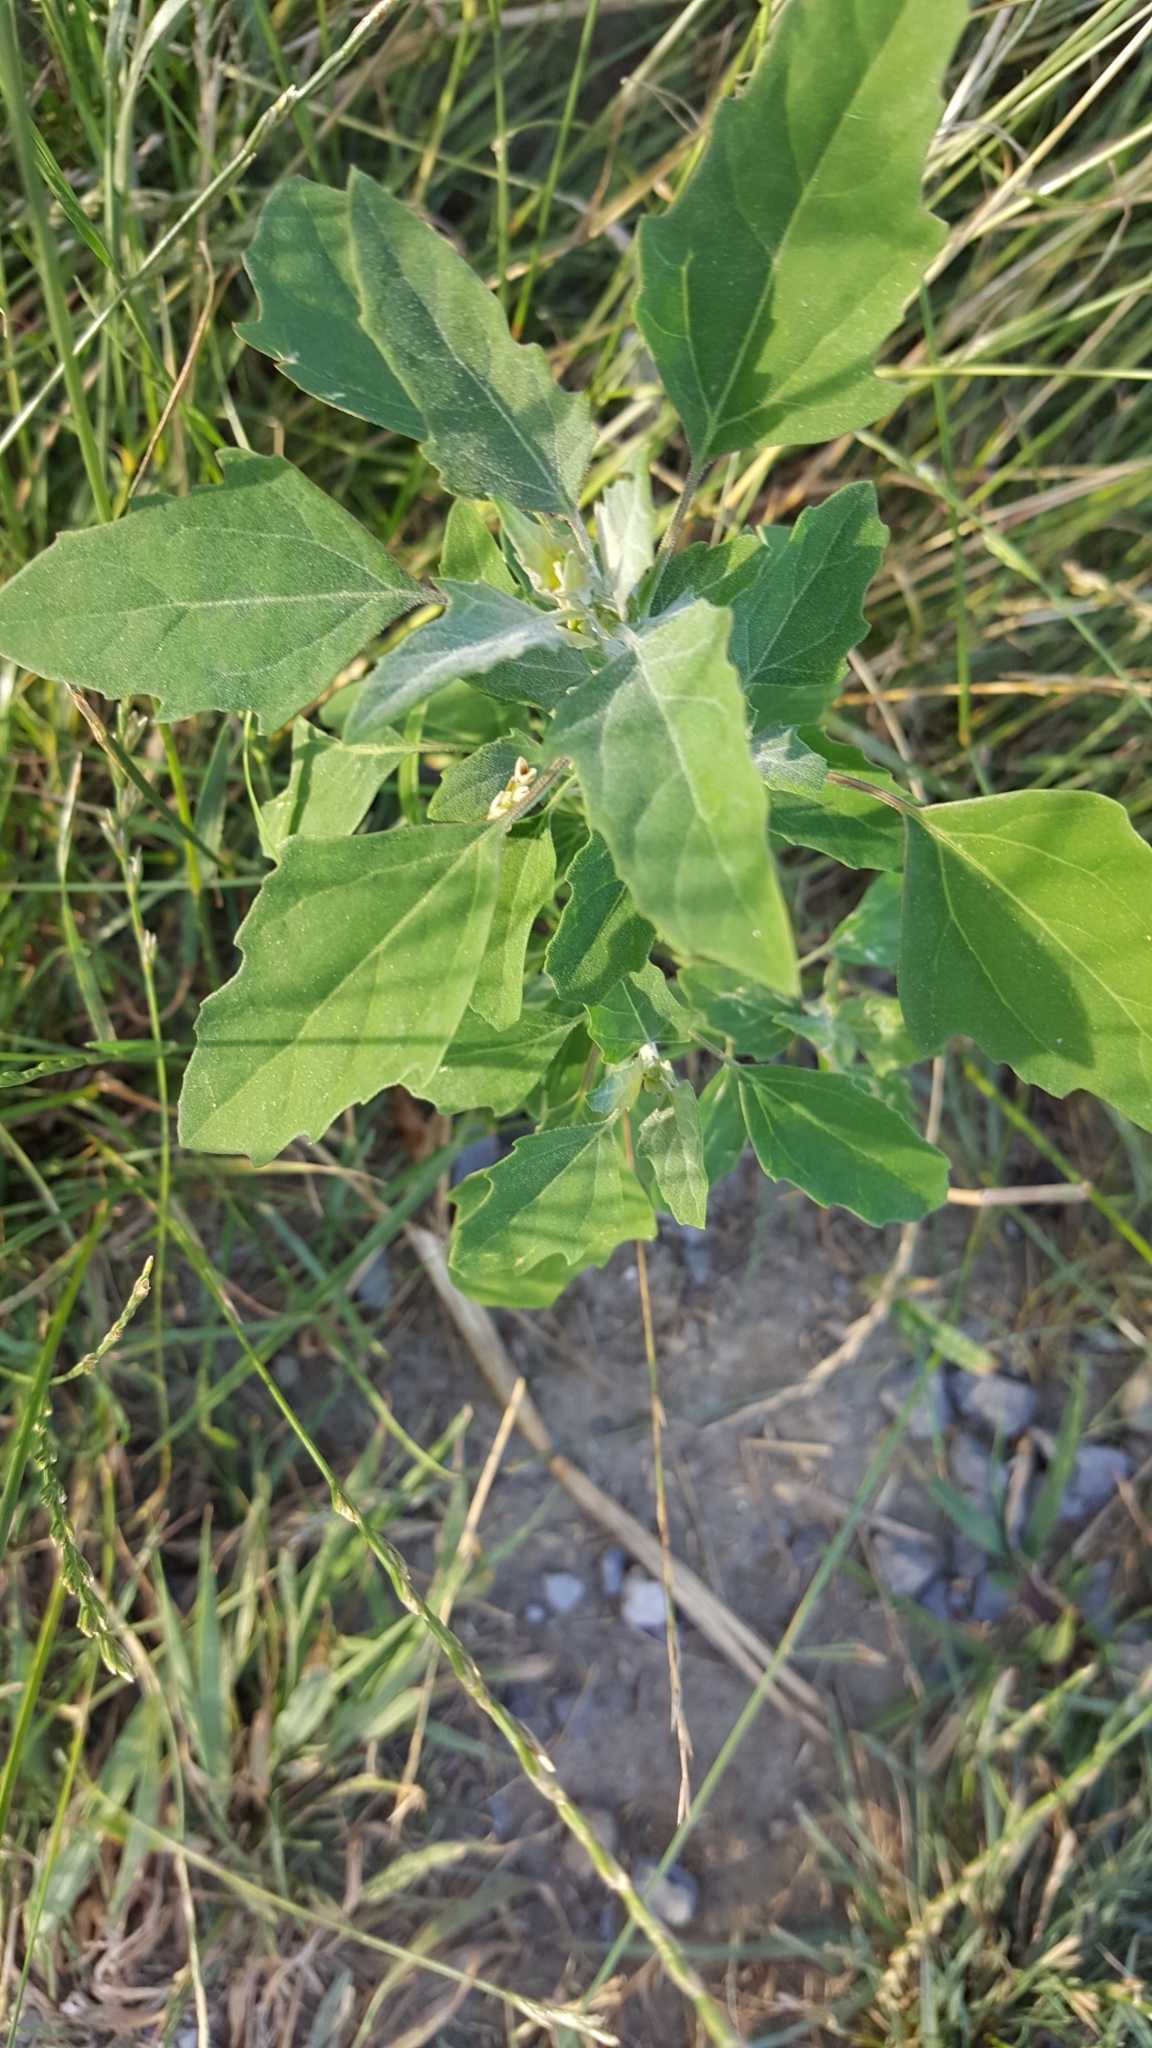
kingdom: Plantae
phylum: Tracheophyta
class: Magnoliopsida
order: Caryophyllales
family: Amaranthaceae
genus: Chenopodium
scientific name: Chenopodium album
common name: Fat-hen
